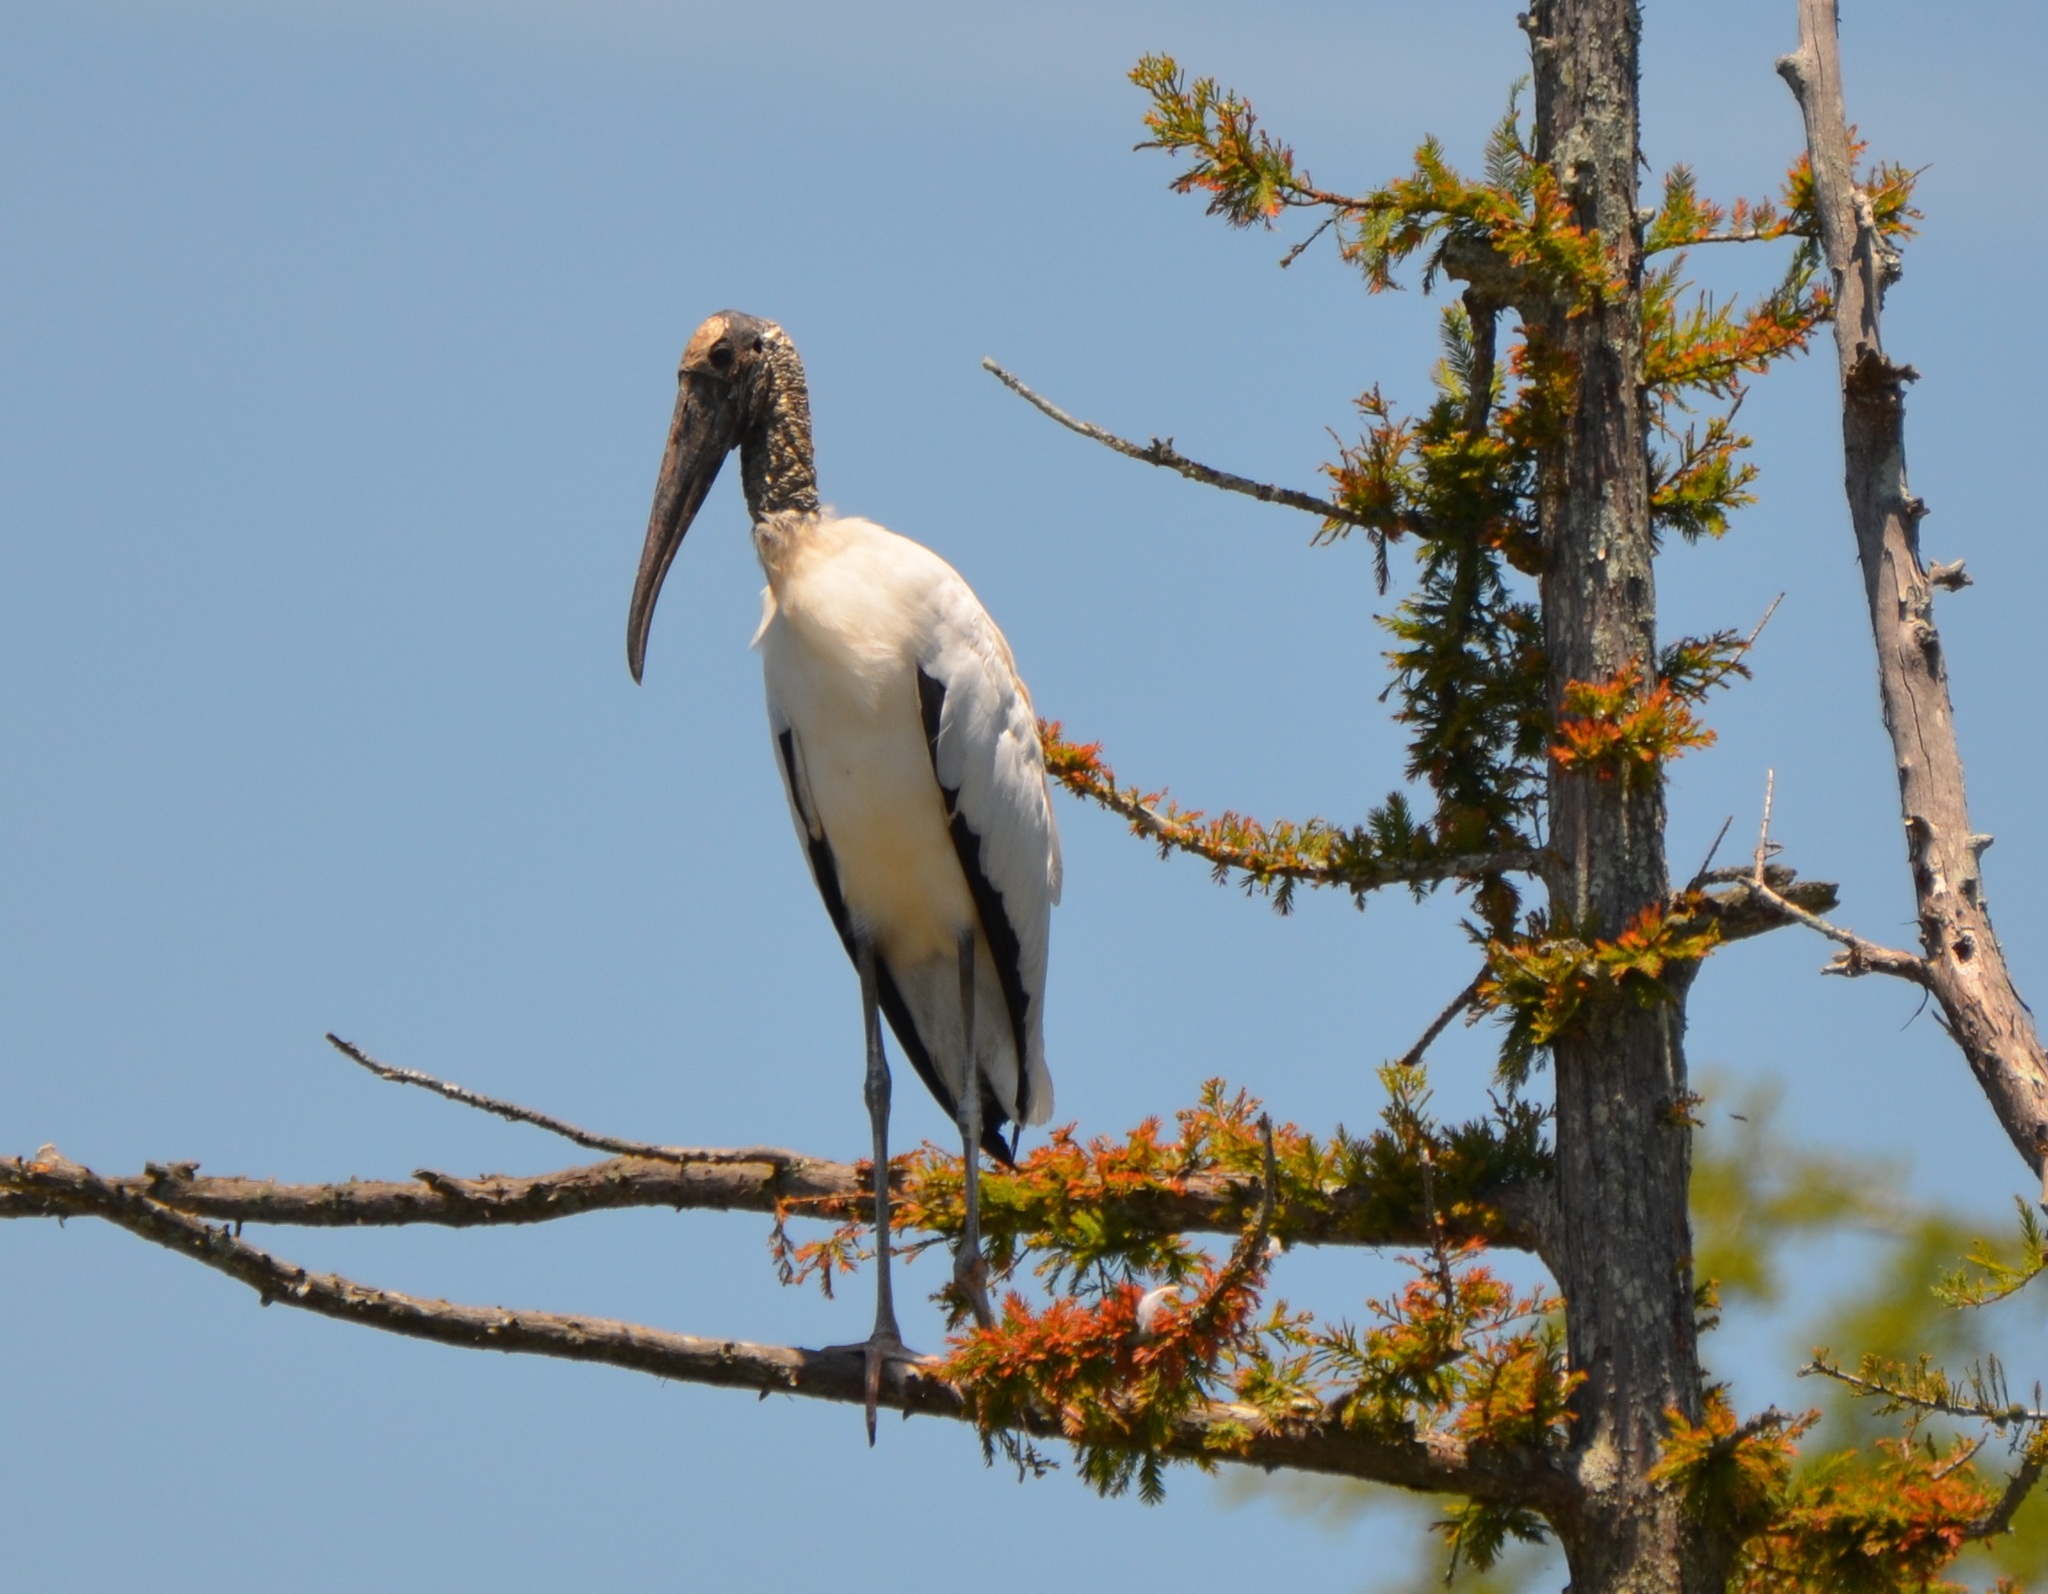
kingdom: Animalia
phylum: Chordata
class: Aves
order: Ciconiiformes
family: Ciconiidae
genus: Mycteria
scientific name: Mycteria americana
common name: Wood stork
